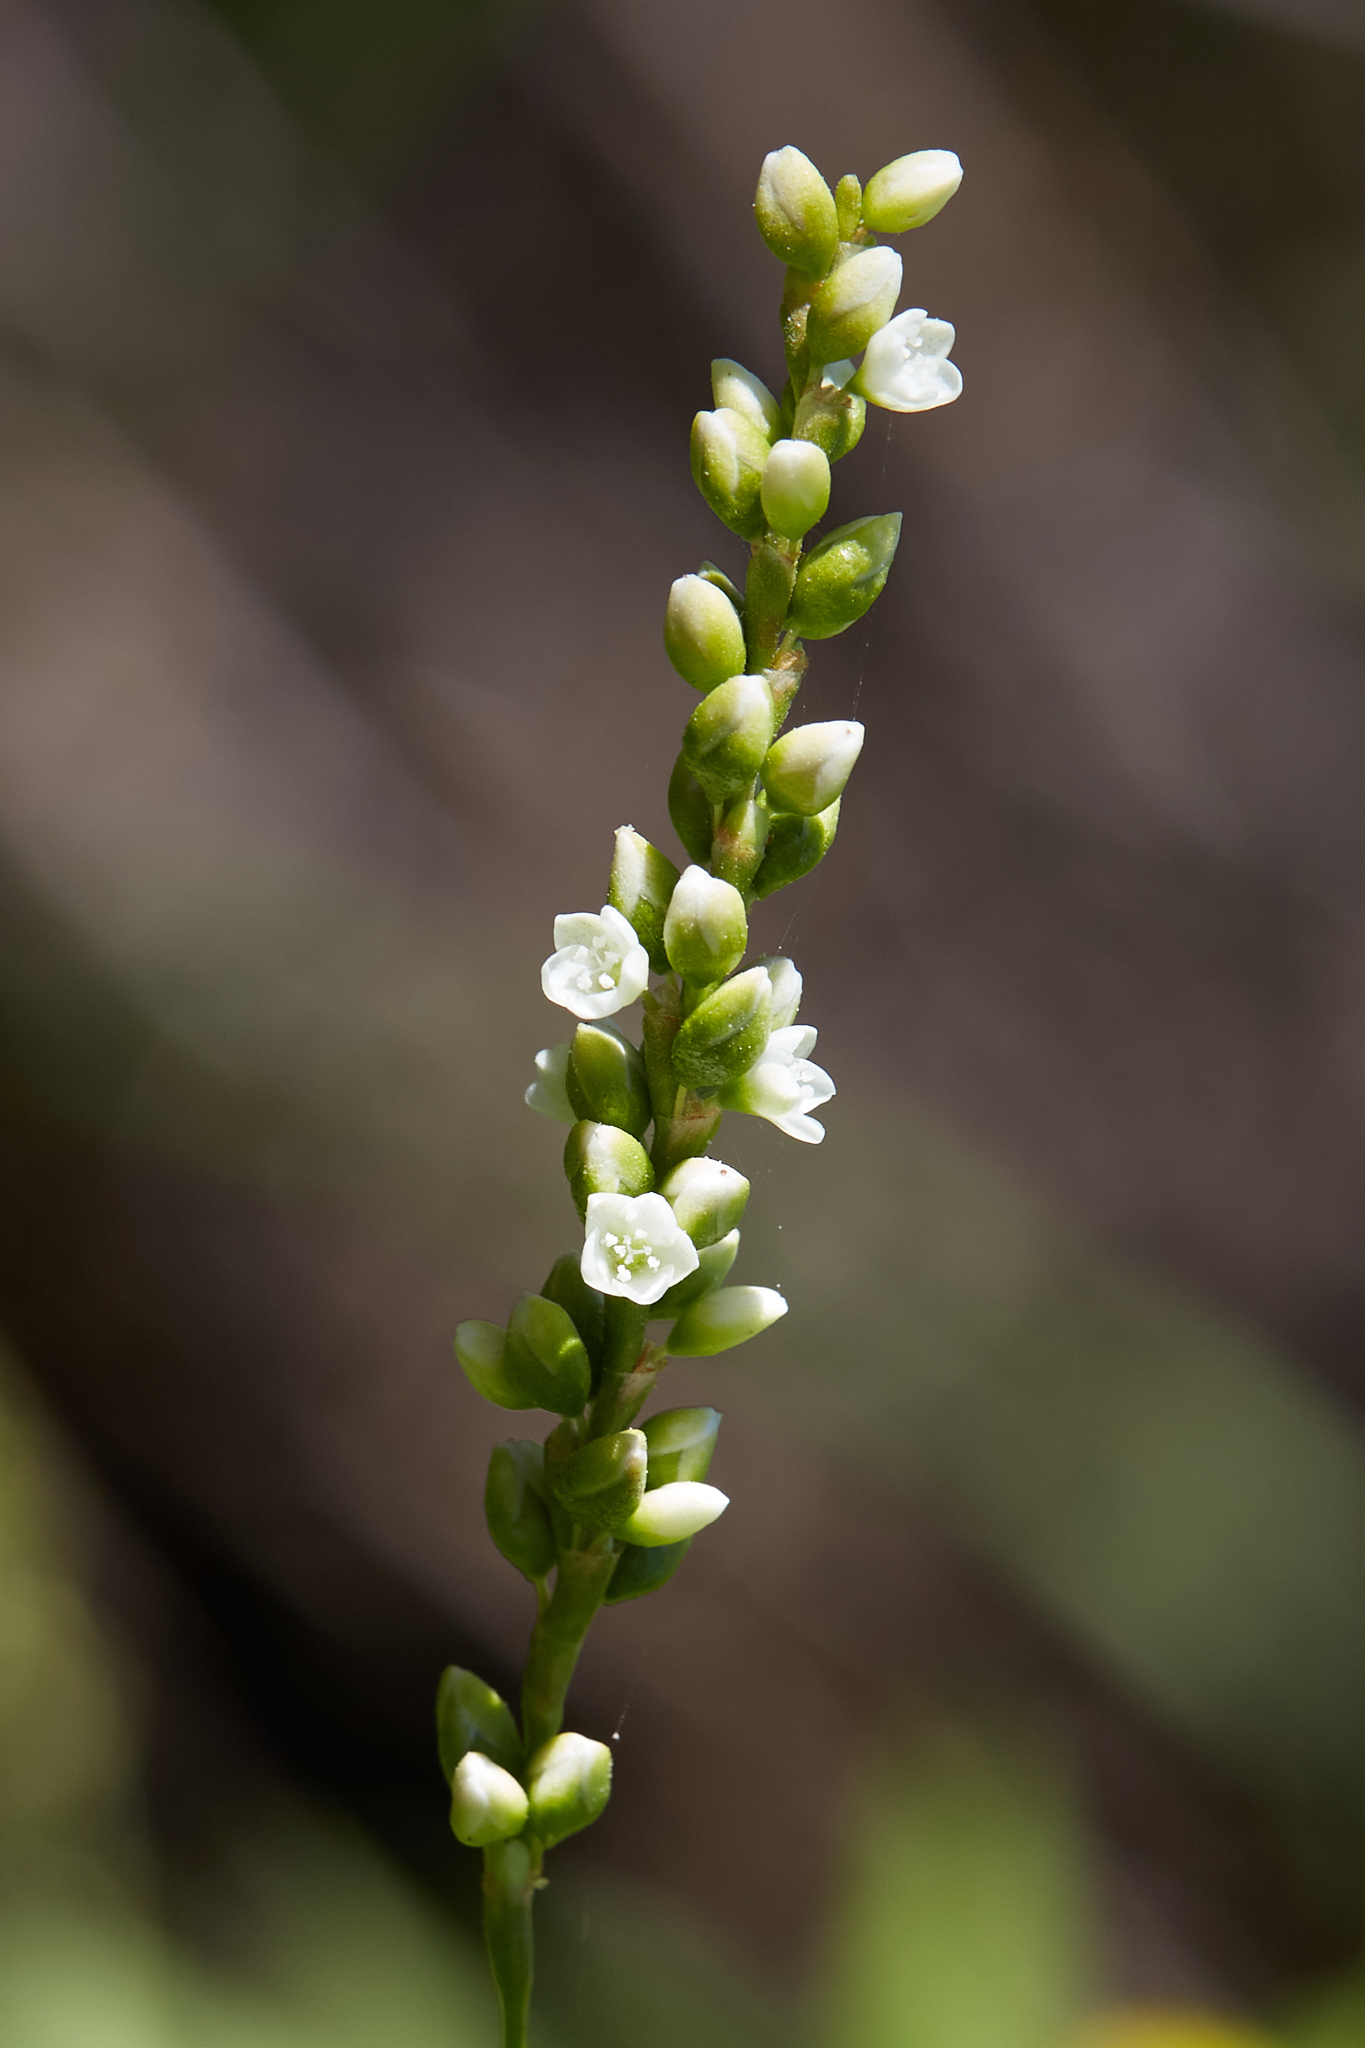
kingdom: Plantae
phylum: Tracheophyta
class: Magnoliopsida
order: Caryophyllales
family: Polygonaceae
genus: Persicaria
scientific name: Persicaria punctata
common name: Dotted smartweed
